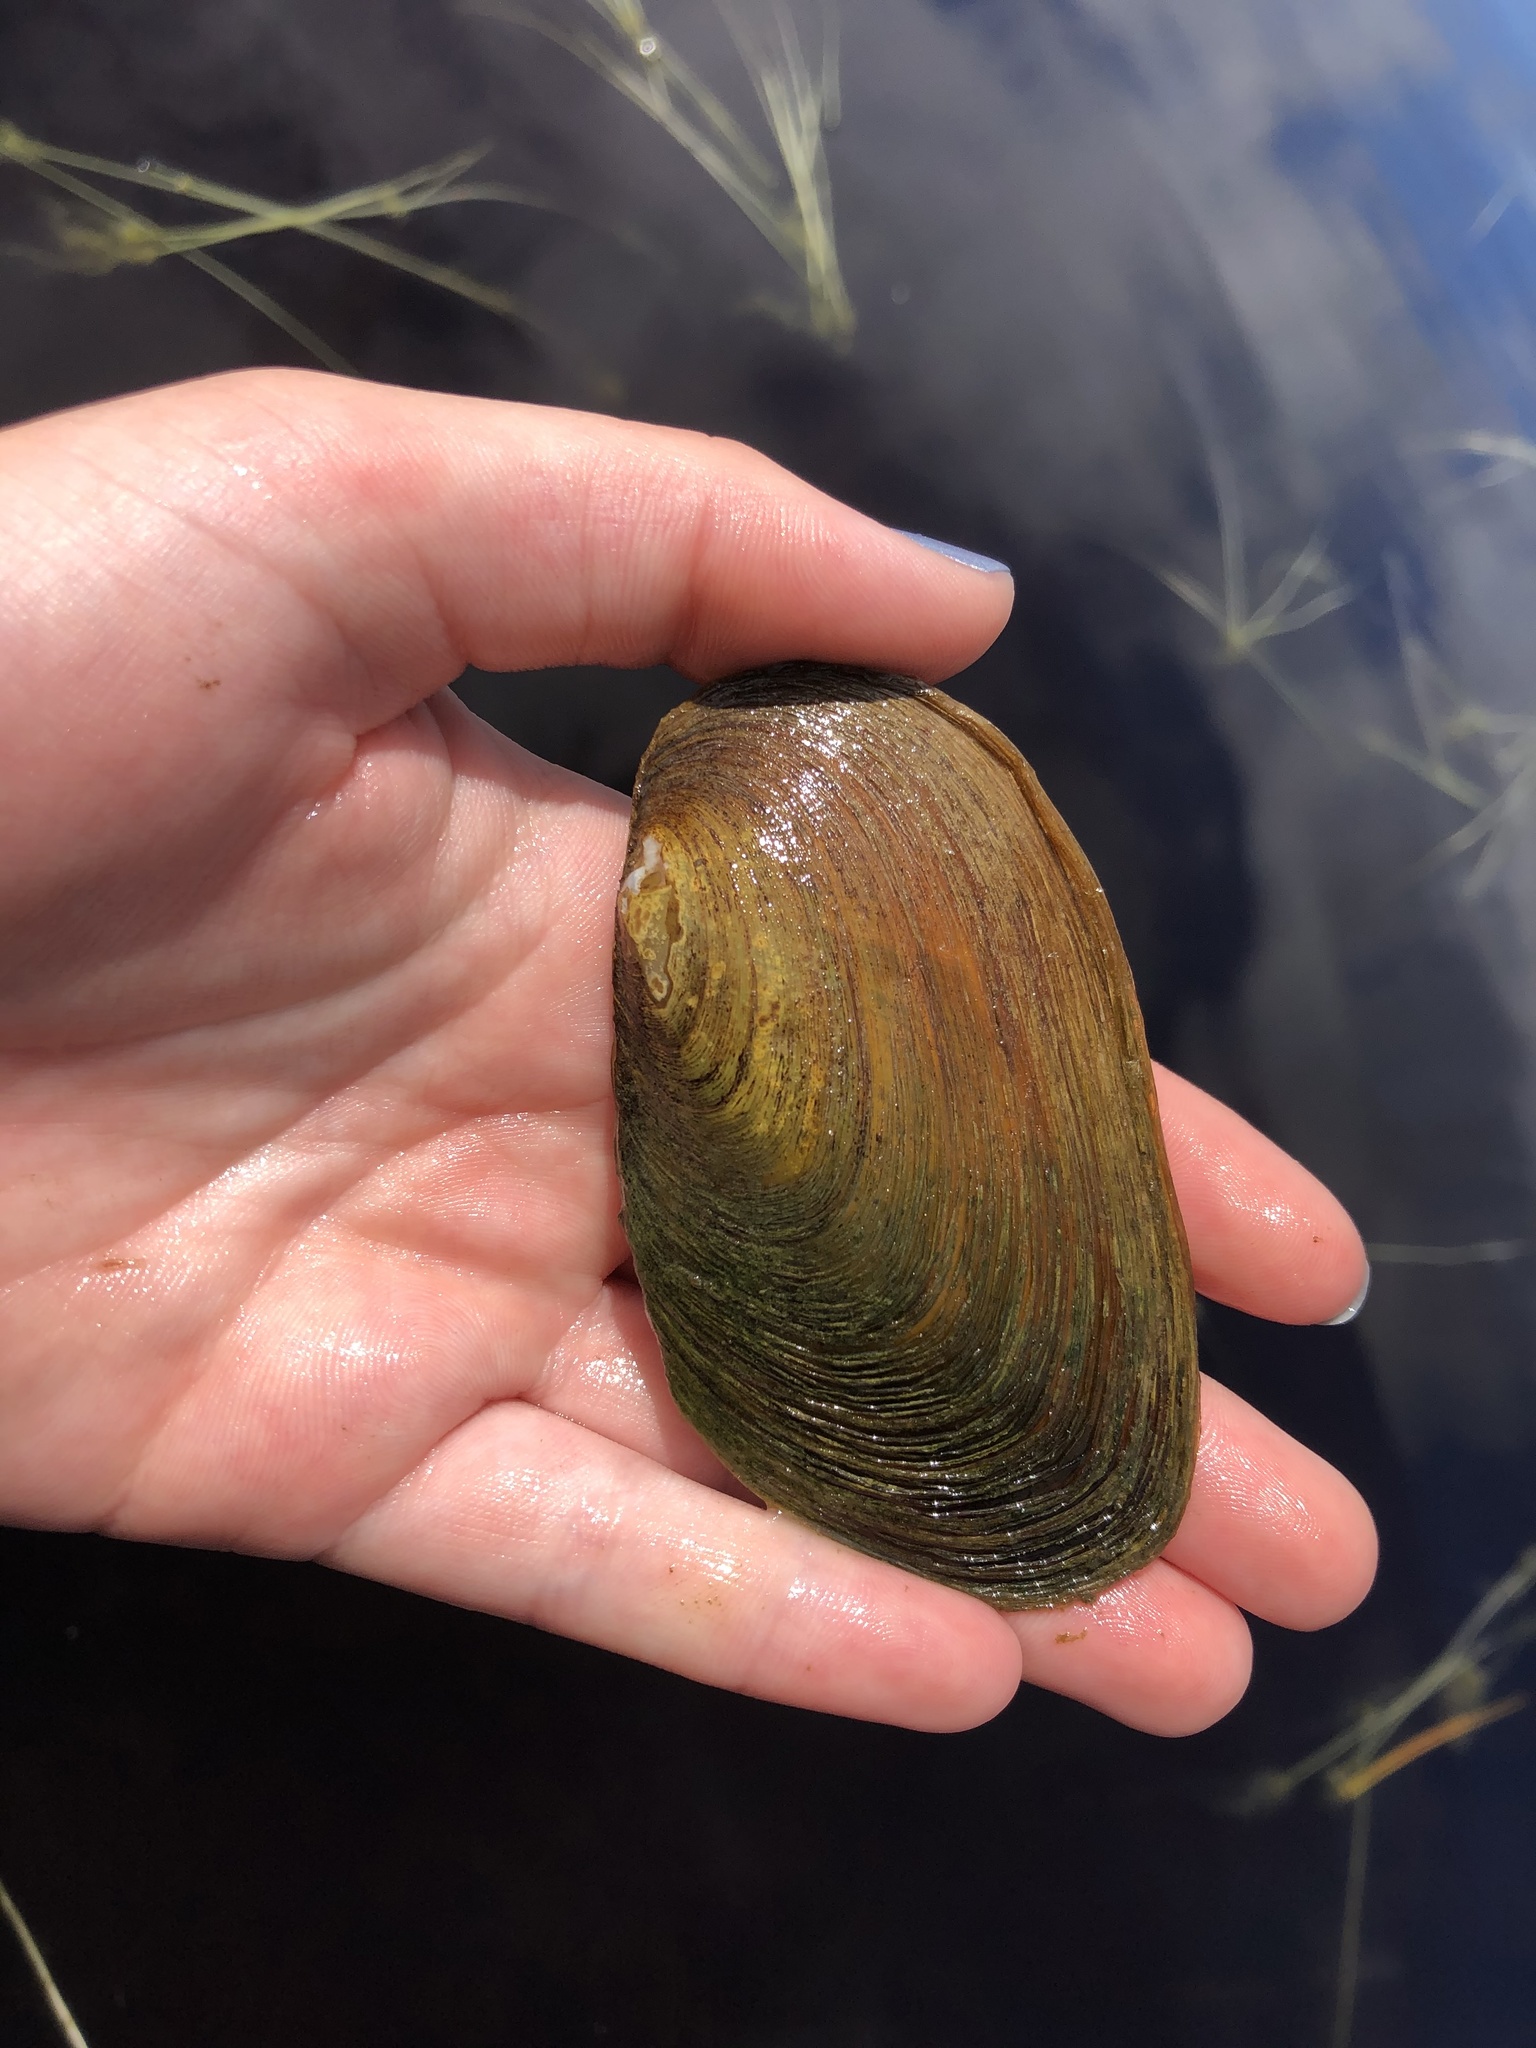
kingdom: Animalia
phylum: Mollusca
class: Bivalvia
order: Unionida
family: Unionidae
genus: Elliptio
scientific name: Elliptio complanata
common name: Eastern elliptio
